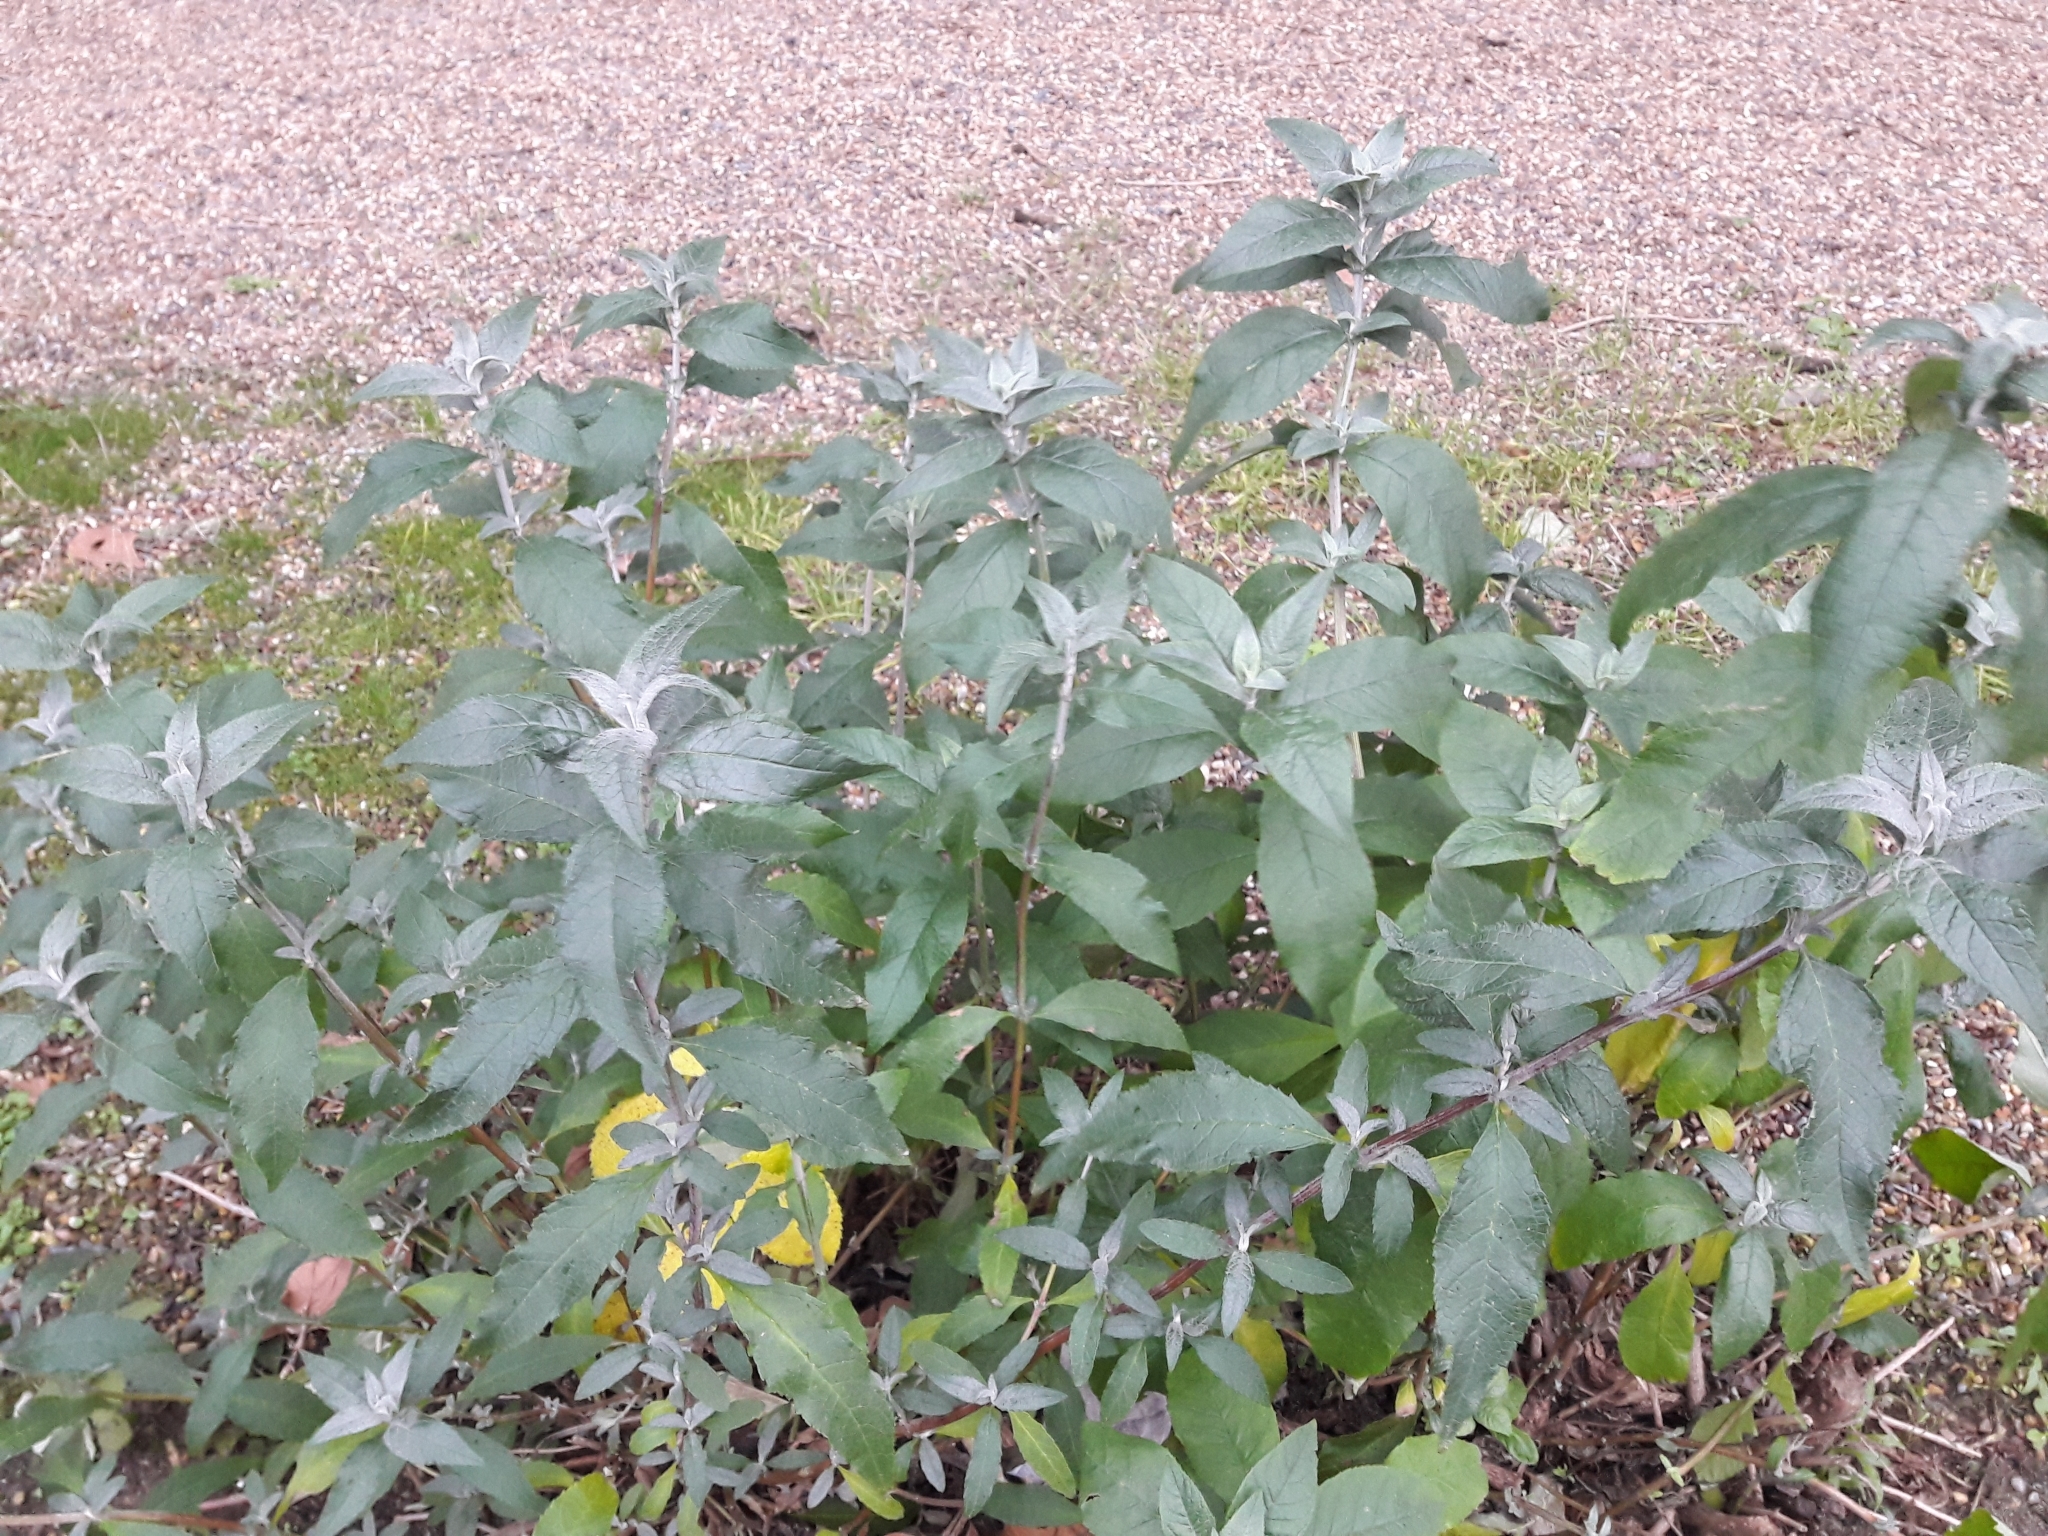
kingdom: Plantae
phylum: Tracheophyta
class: Magnoliopsida
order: Lamiales
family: Scrophulariaceae
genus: Buddleja
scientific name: Buddleja davidii
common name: Butterfly-bush
